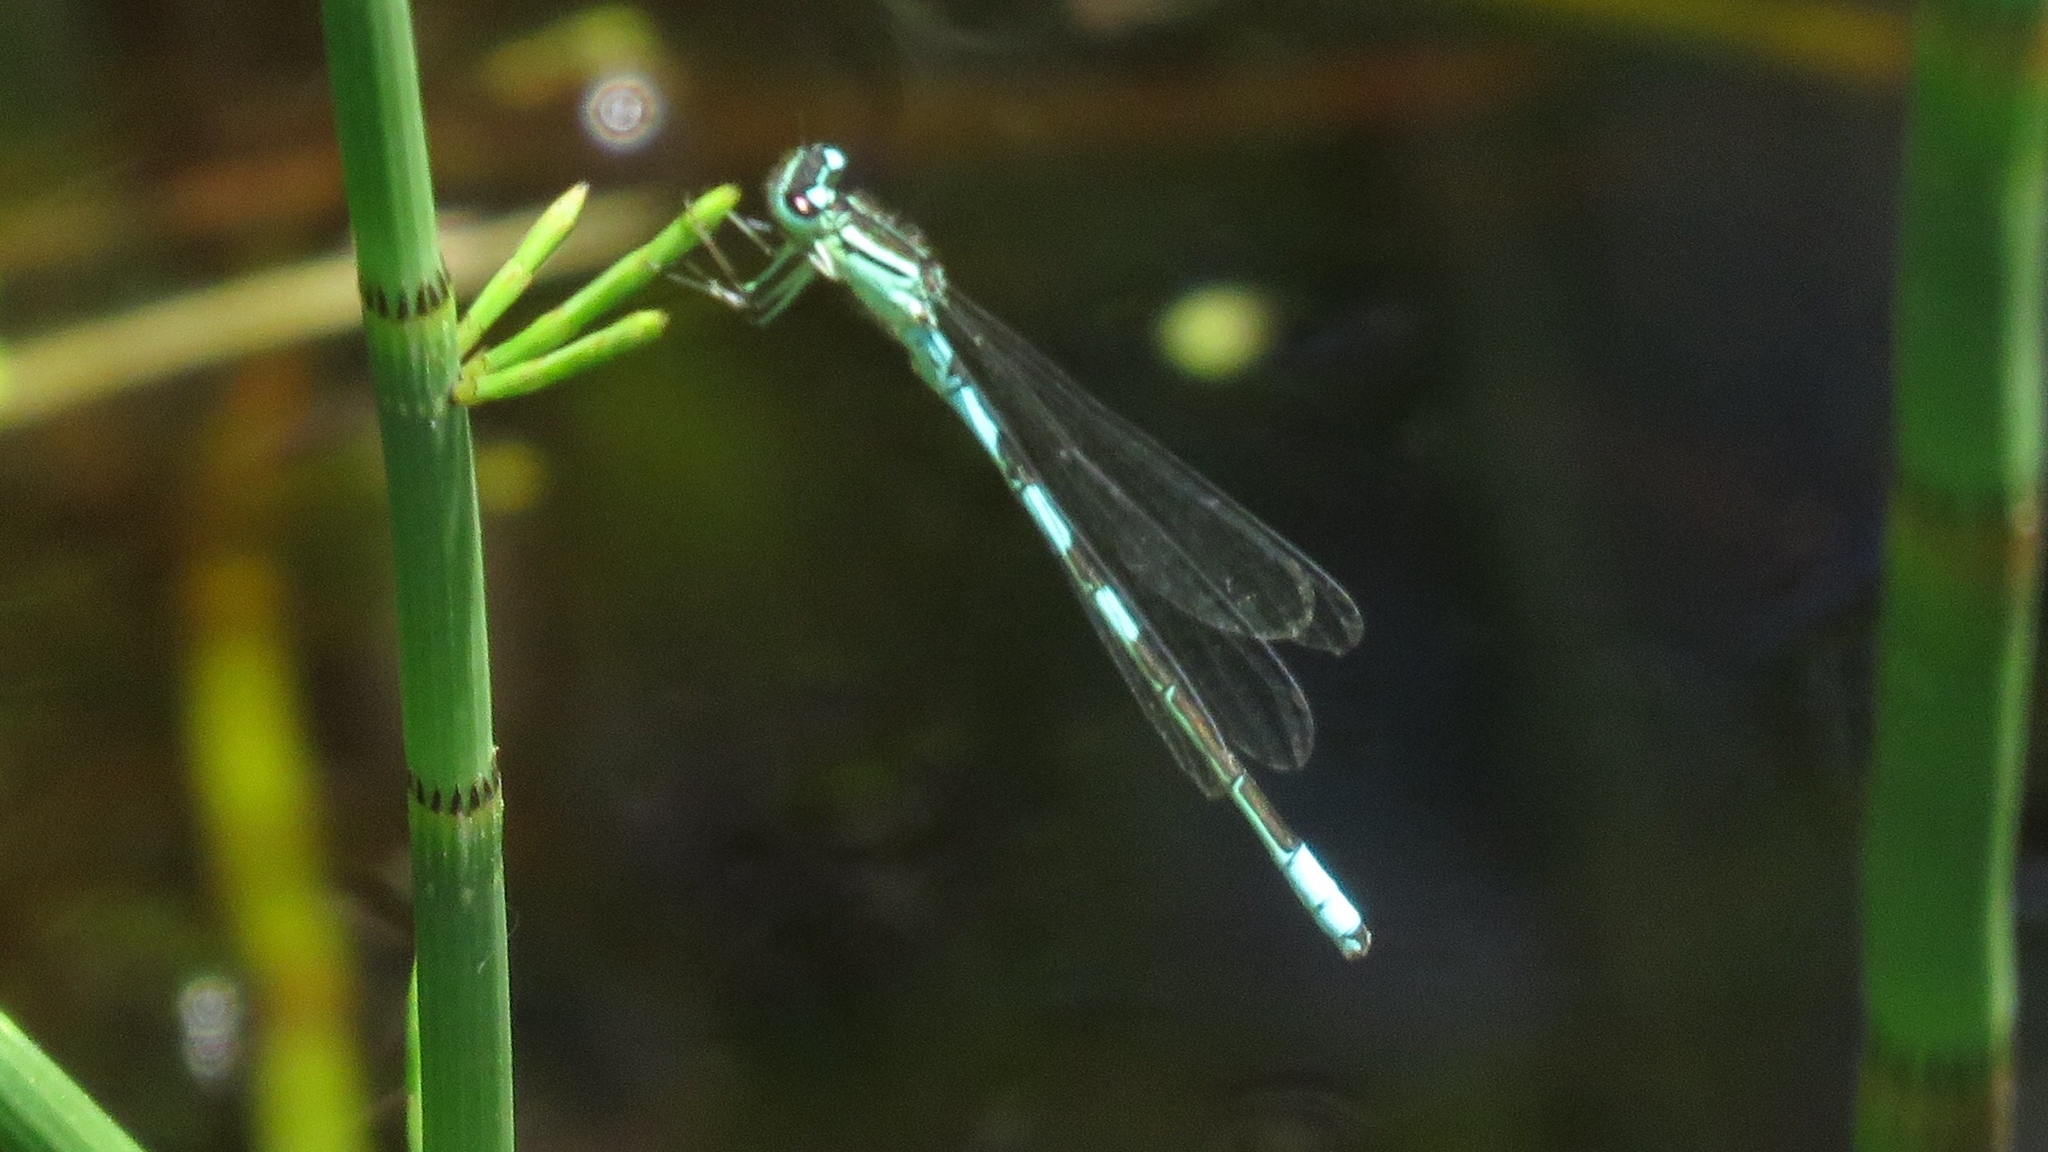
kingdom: Animalia
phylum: Arthropoda
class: Insecta
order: Odonata
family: Coenagrionidae
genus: Coenagrion
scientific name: Coenagrion resolutum
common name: Taiga bluet
